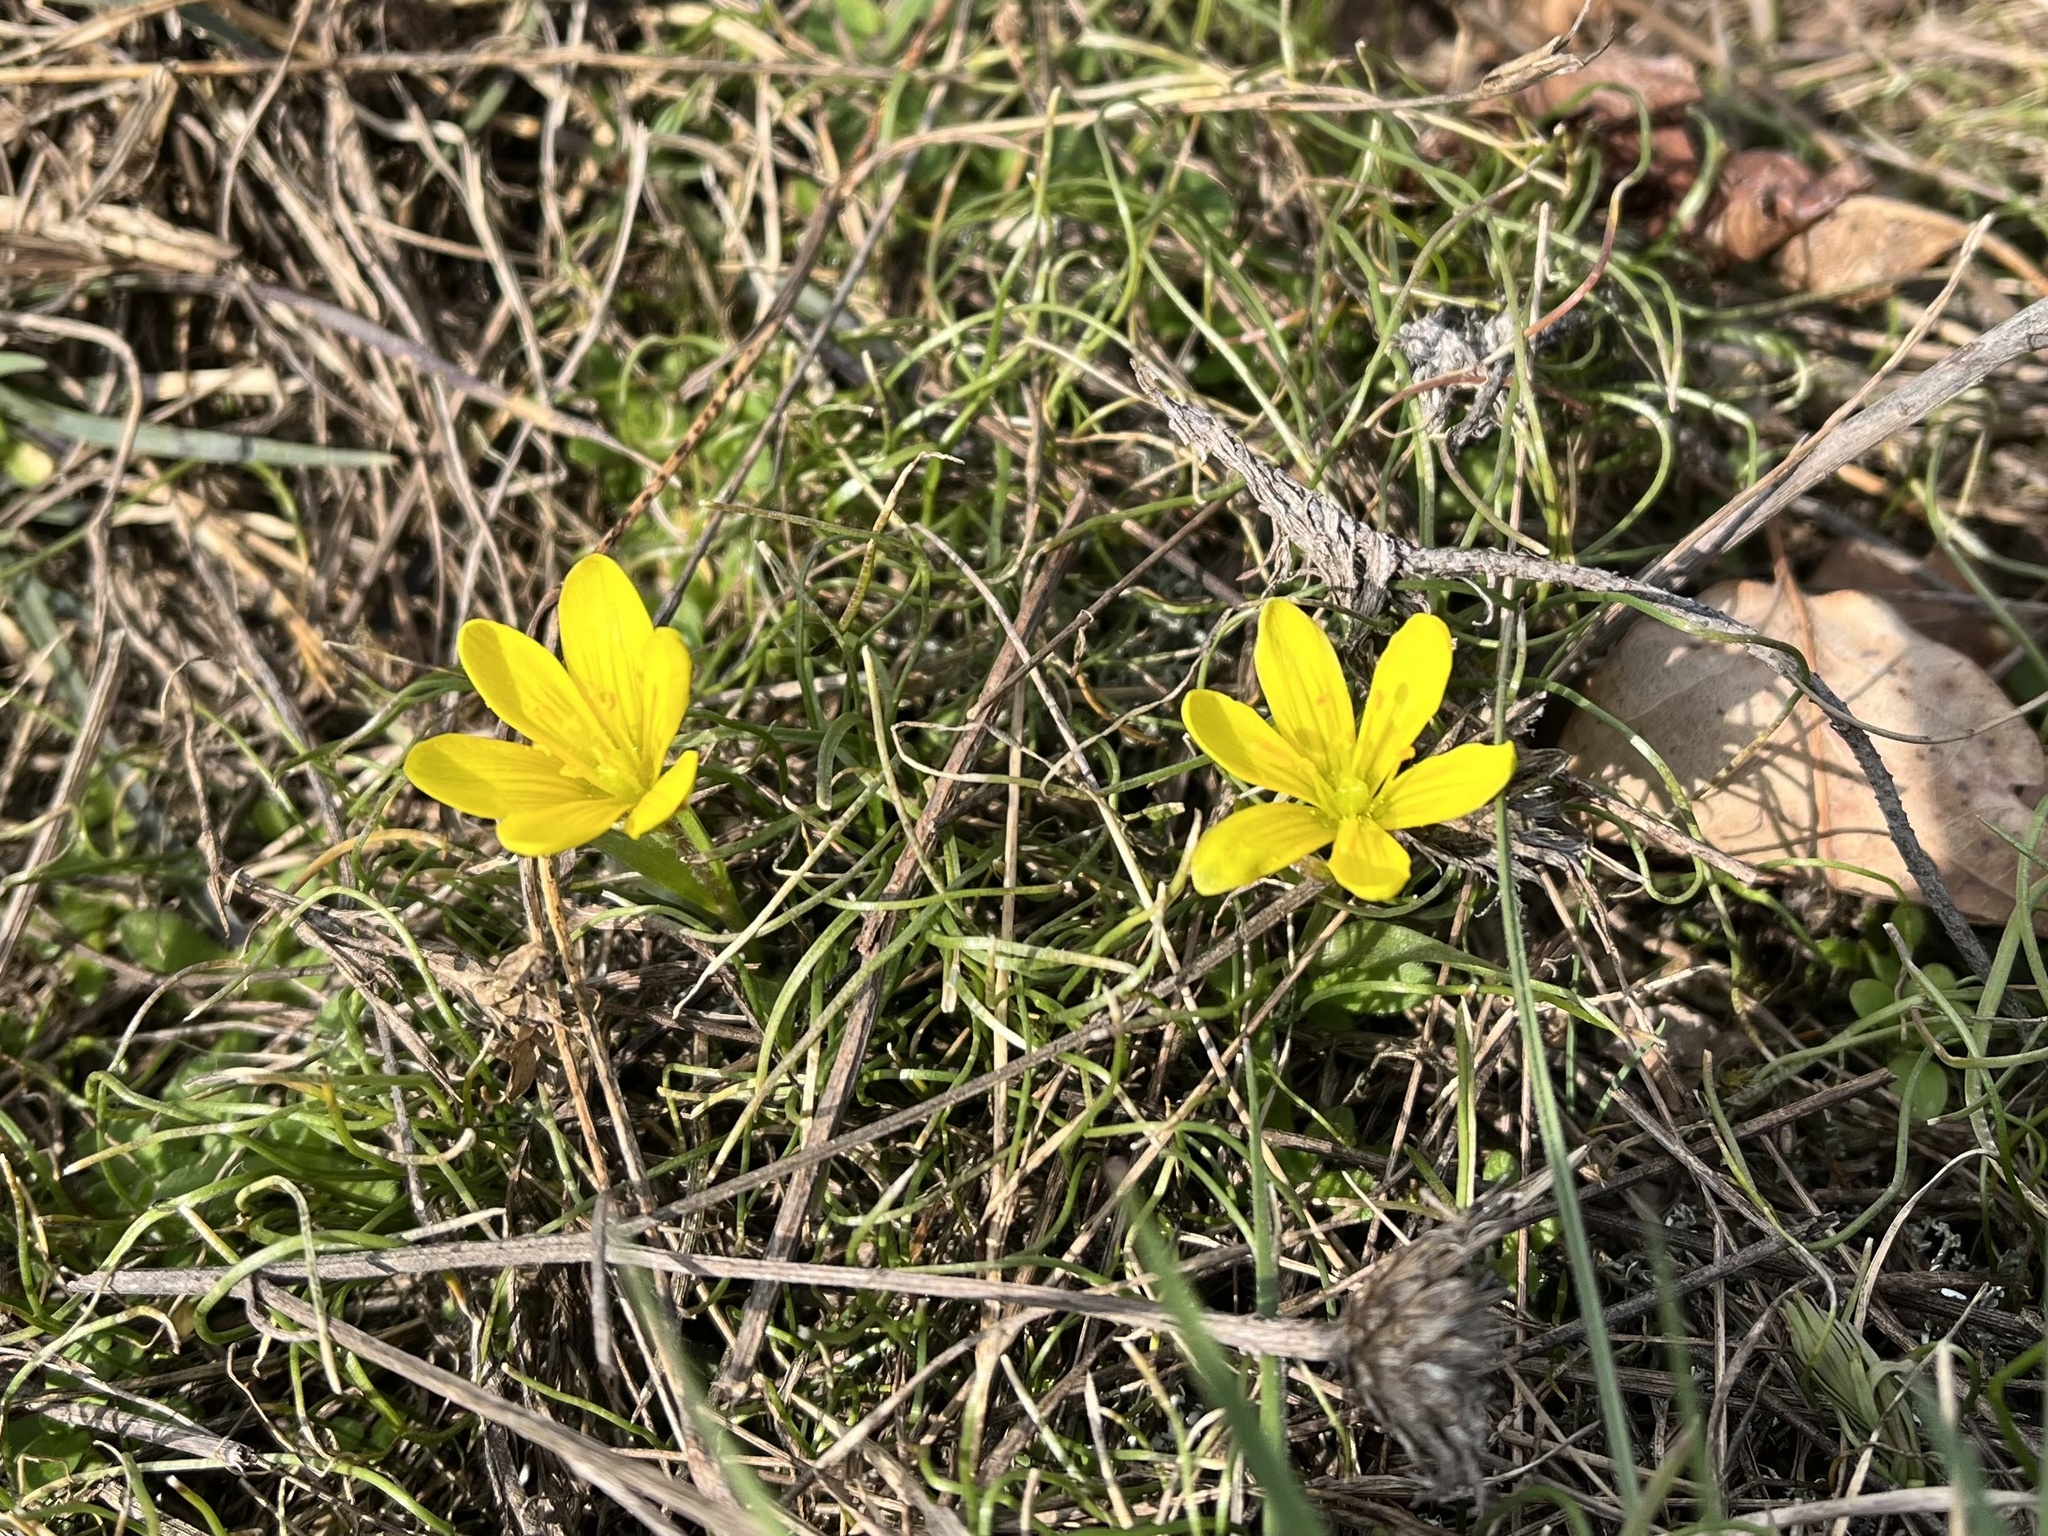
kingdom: Plantae
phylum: Tracheophyta
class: Liliopsida
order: Liliales
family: Liliaceae
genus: Gagea
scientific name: Gagea bohemica
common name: Early star-of-bethlehem
